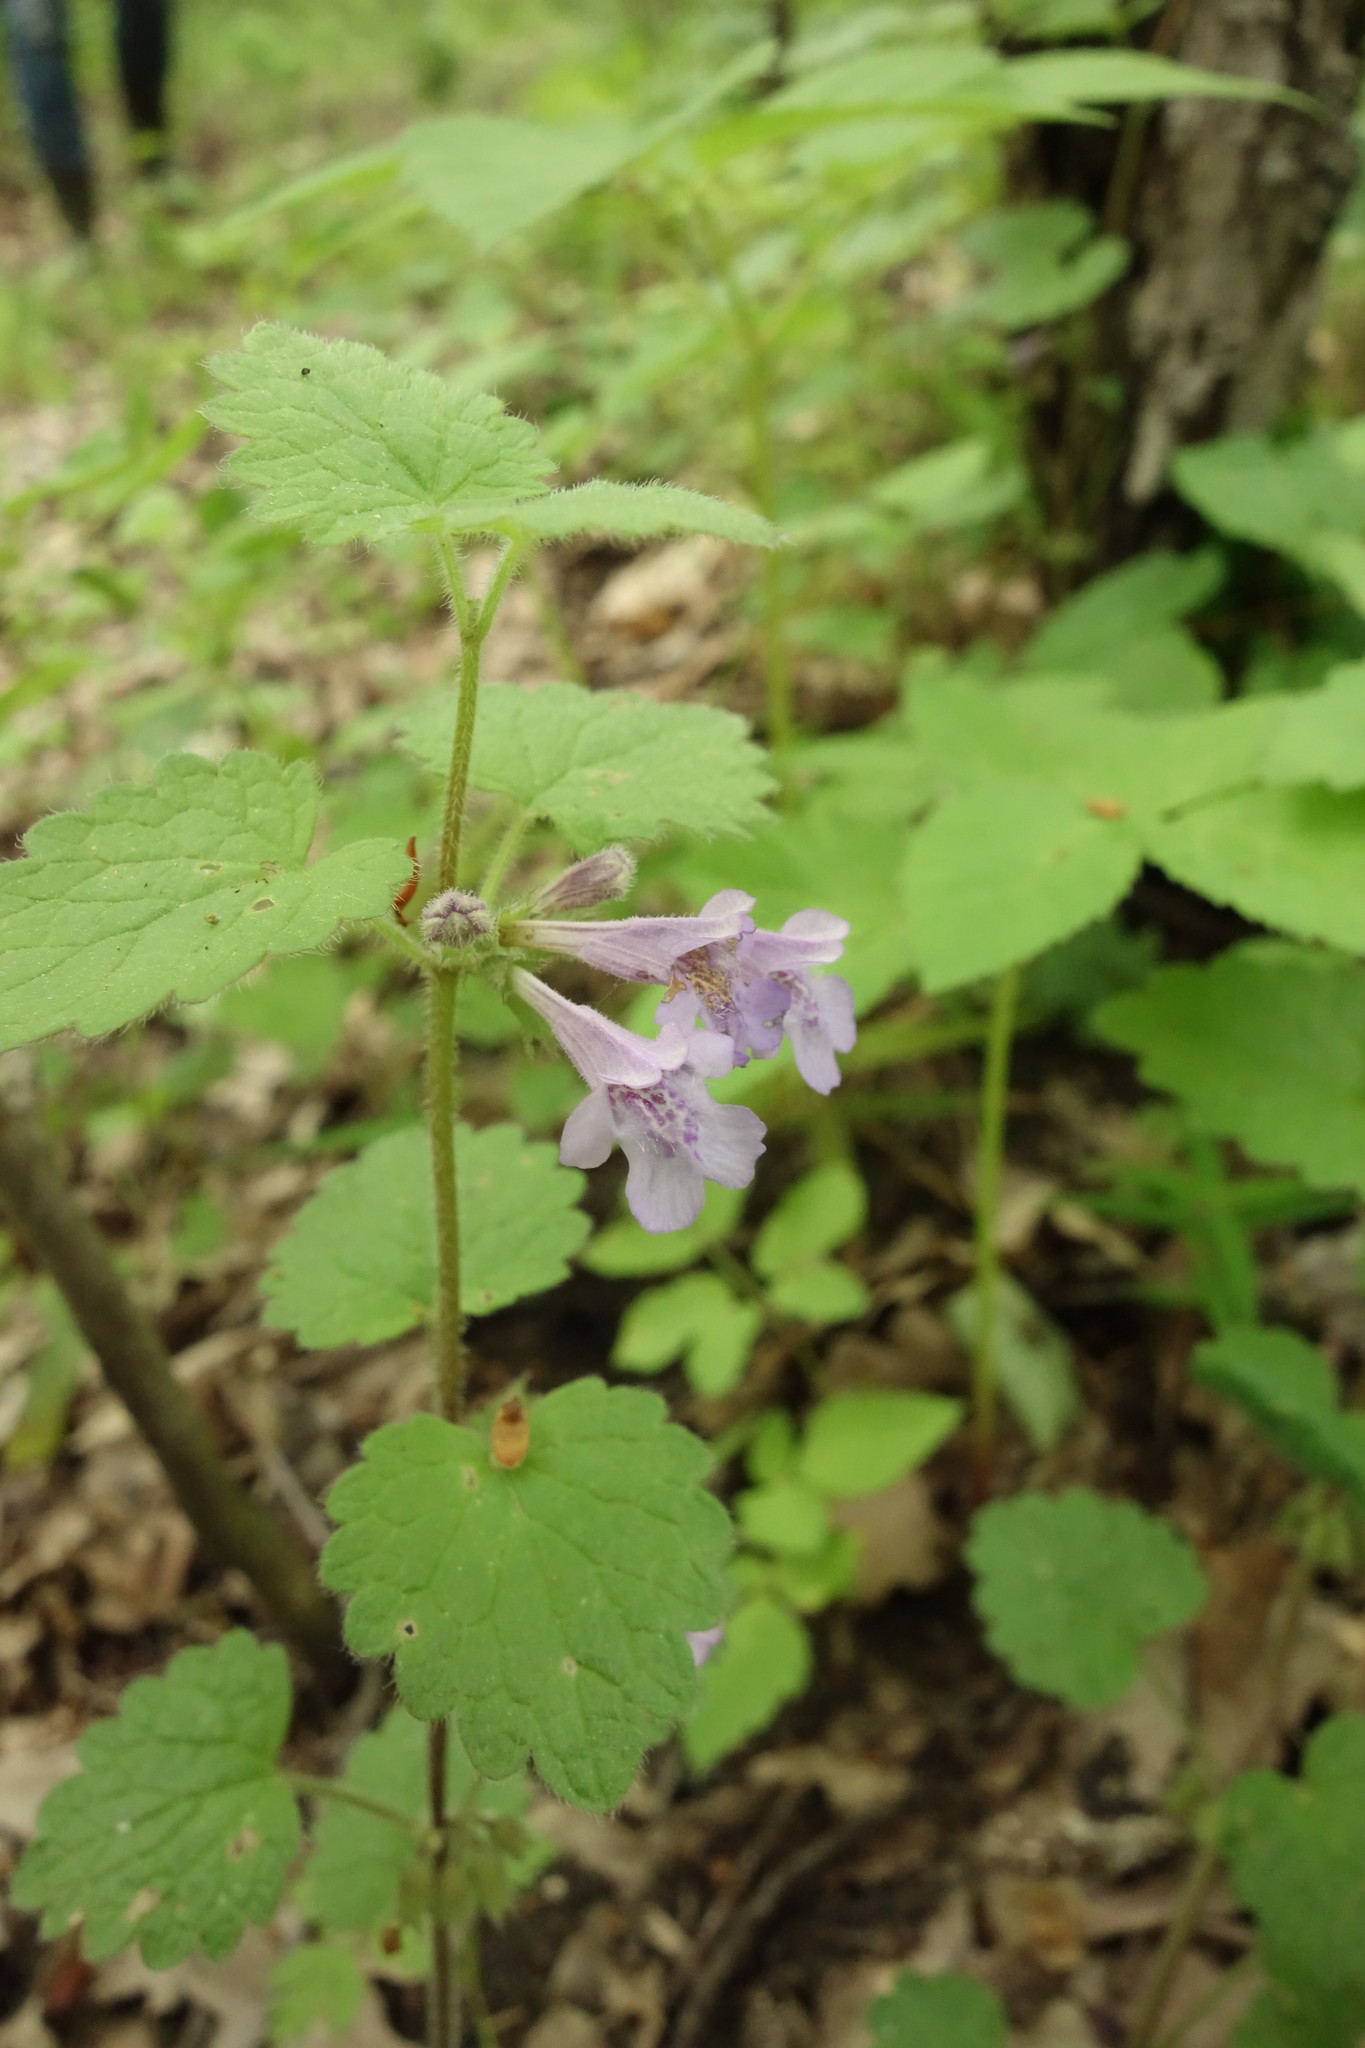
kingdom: Plantae
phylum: Tracheophyta
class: Magnoliopsida
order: Lamiales
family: Lamiaceae
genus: Glechoma
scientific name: Glechoma hederacea
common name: Ground ivy
